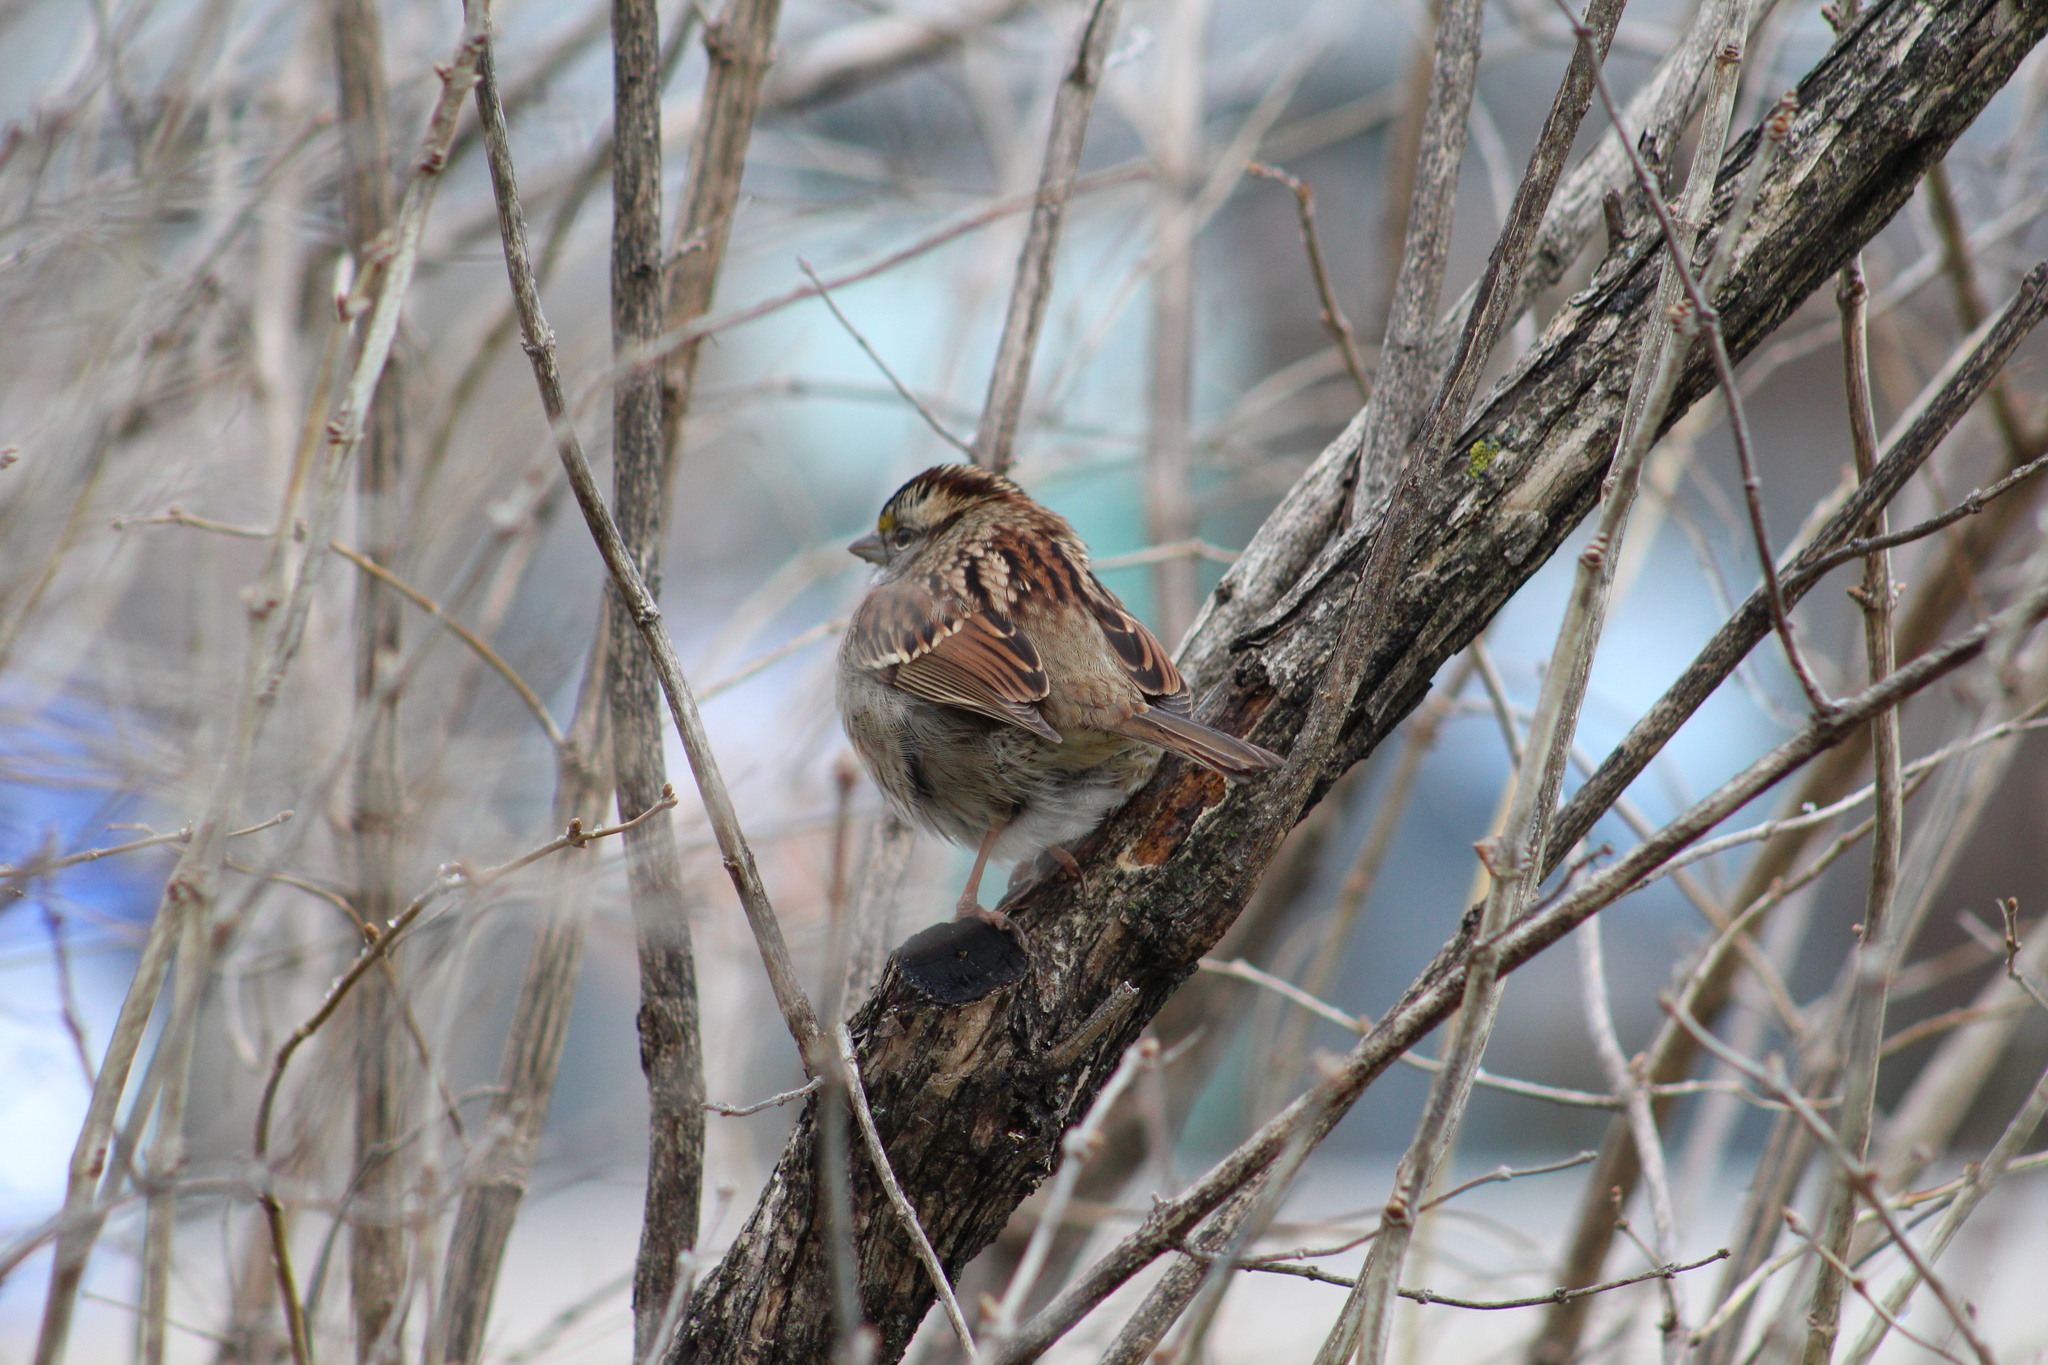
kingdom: Animalia
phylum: Chordata
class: Aves
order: Passeriformes
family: Passerellidae
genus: Zonotrichia
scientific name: Zonotrichia albicollis
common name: White-throated sparrow
